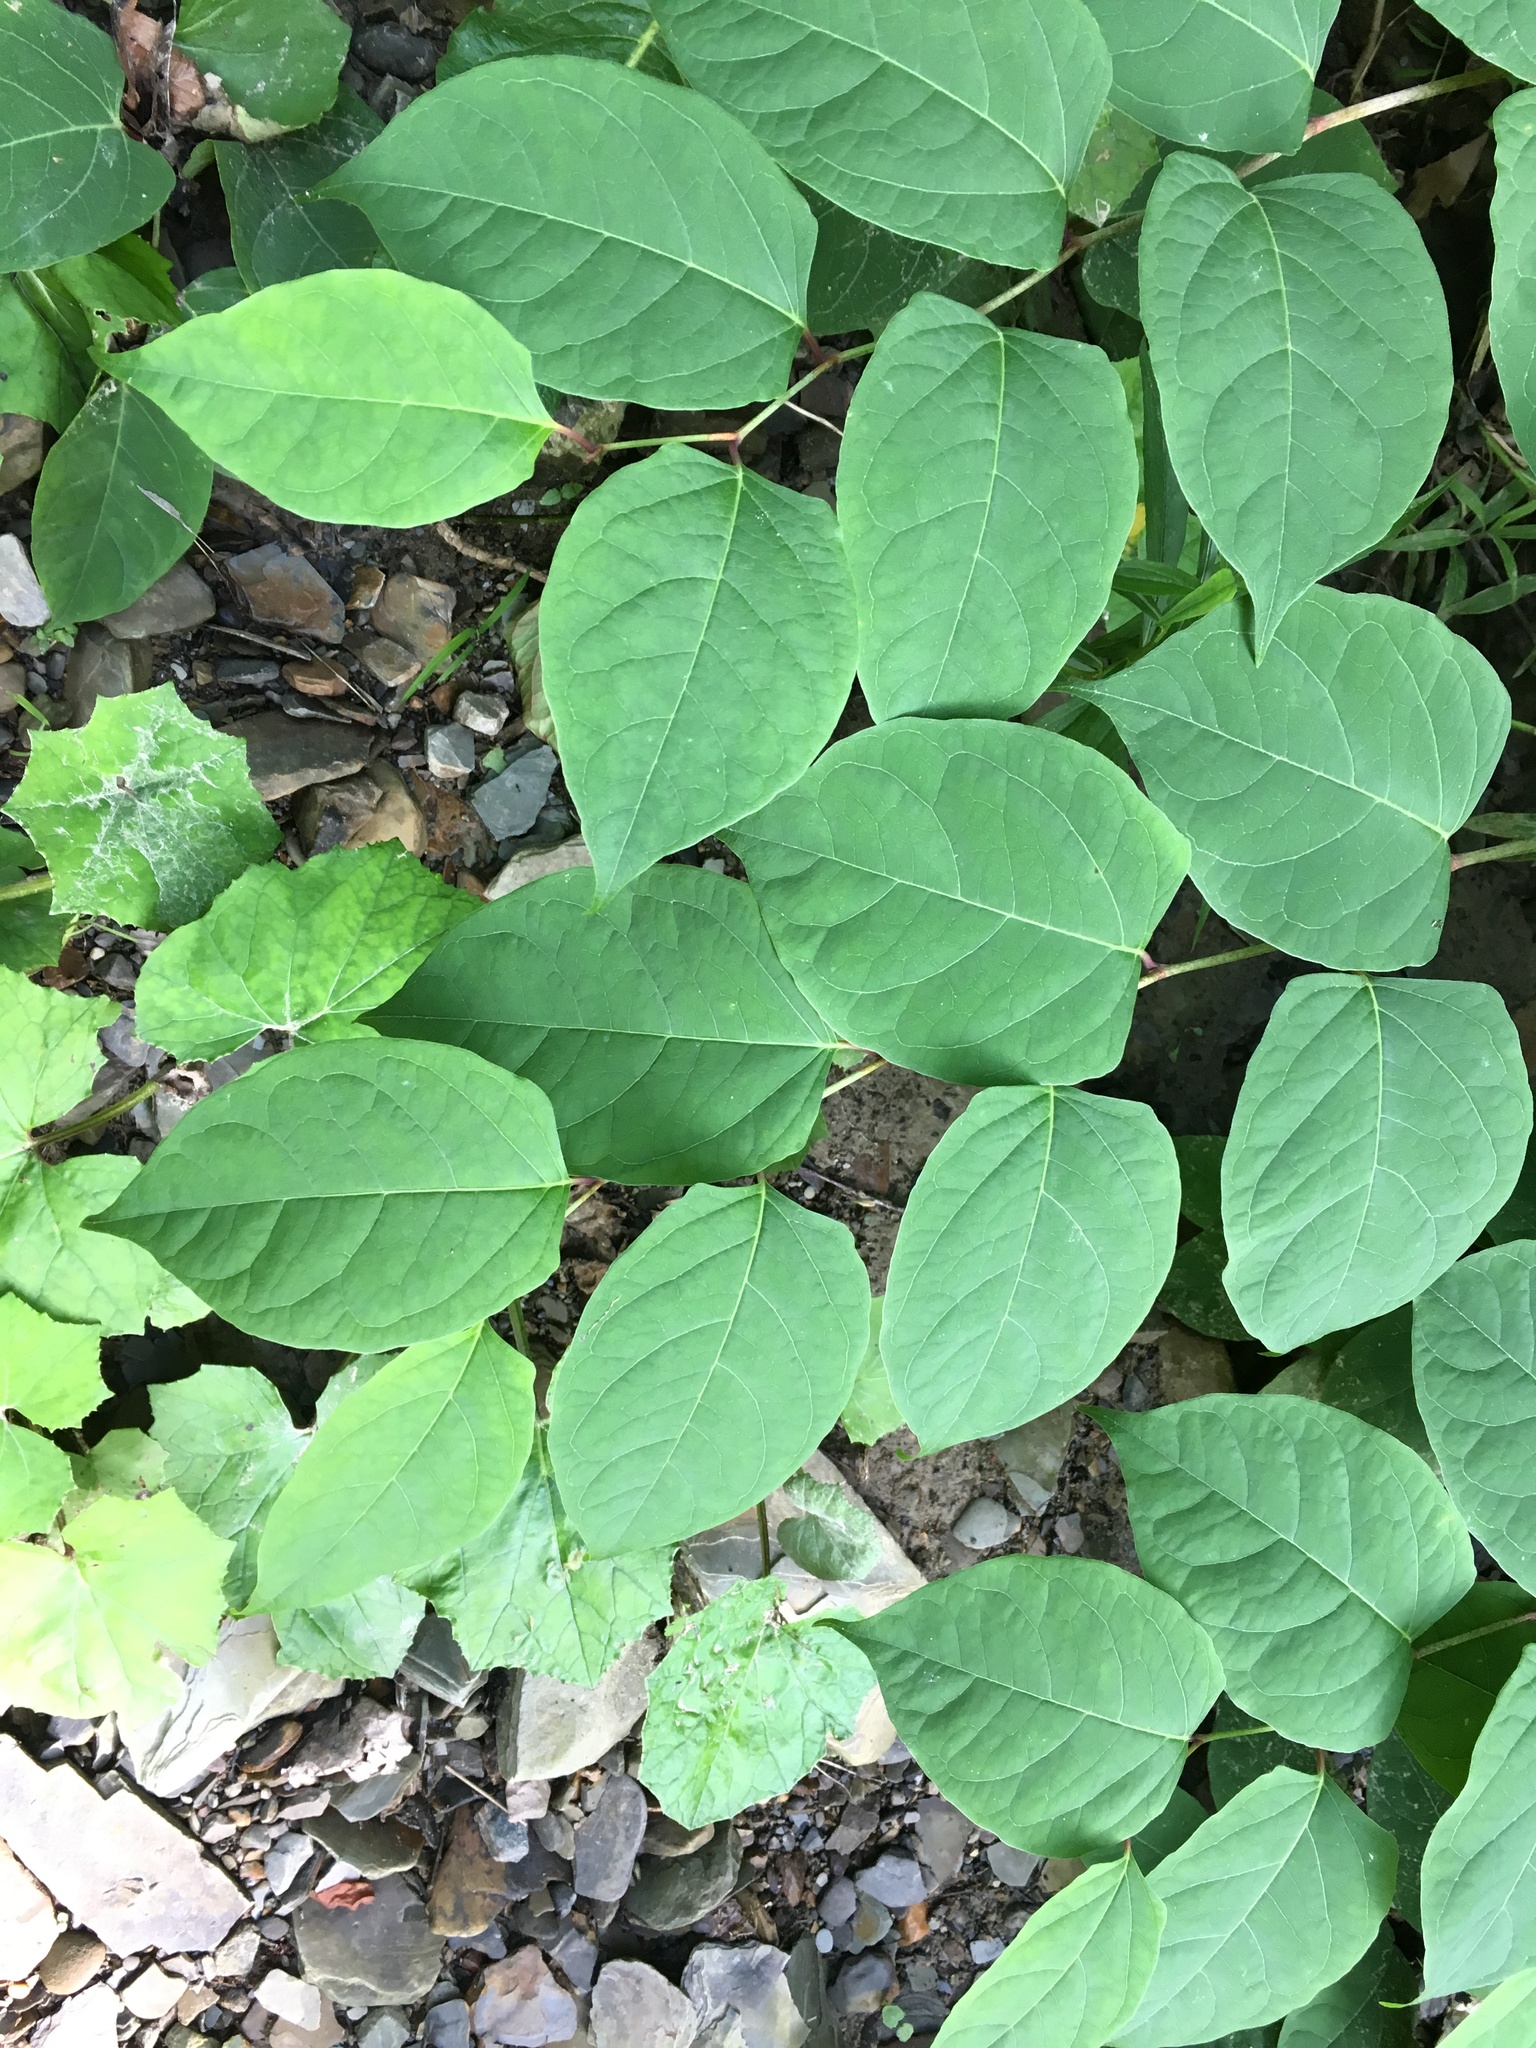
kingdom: Plantae
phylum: Tracheophyta
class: Magnoliopsida
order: Caryophyllales
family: Polygonaceae
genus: Reynoutria
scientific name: Reynoutria japonica
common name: Japanese knotweed
